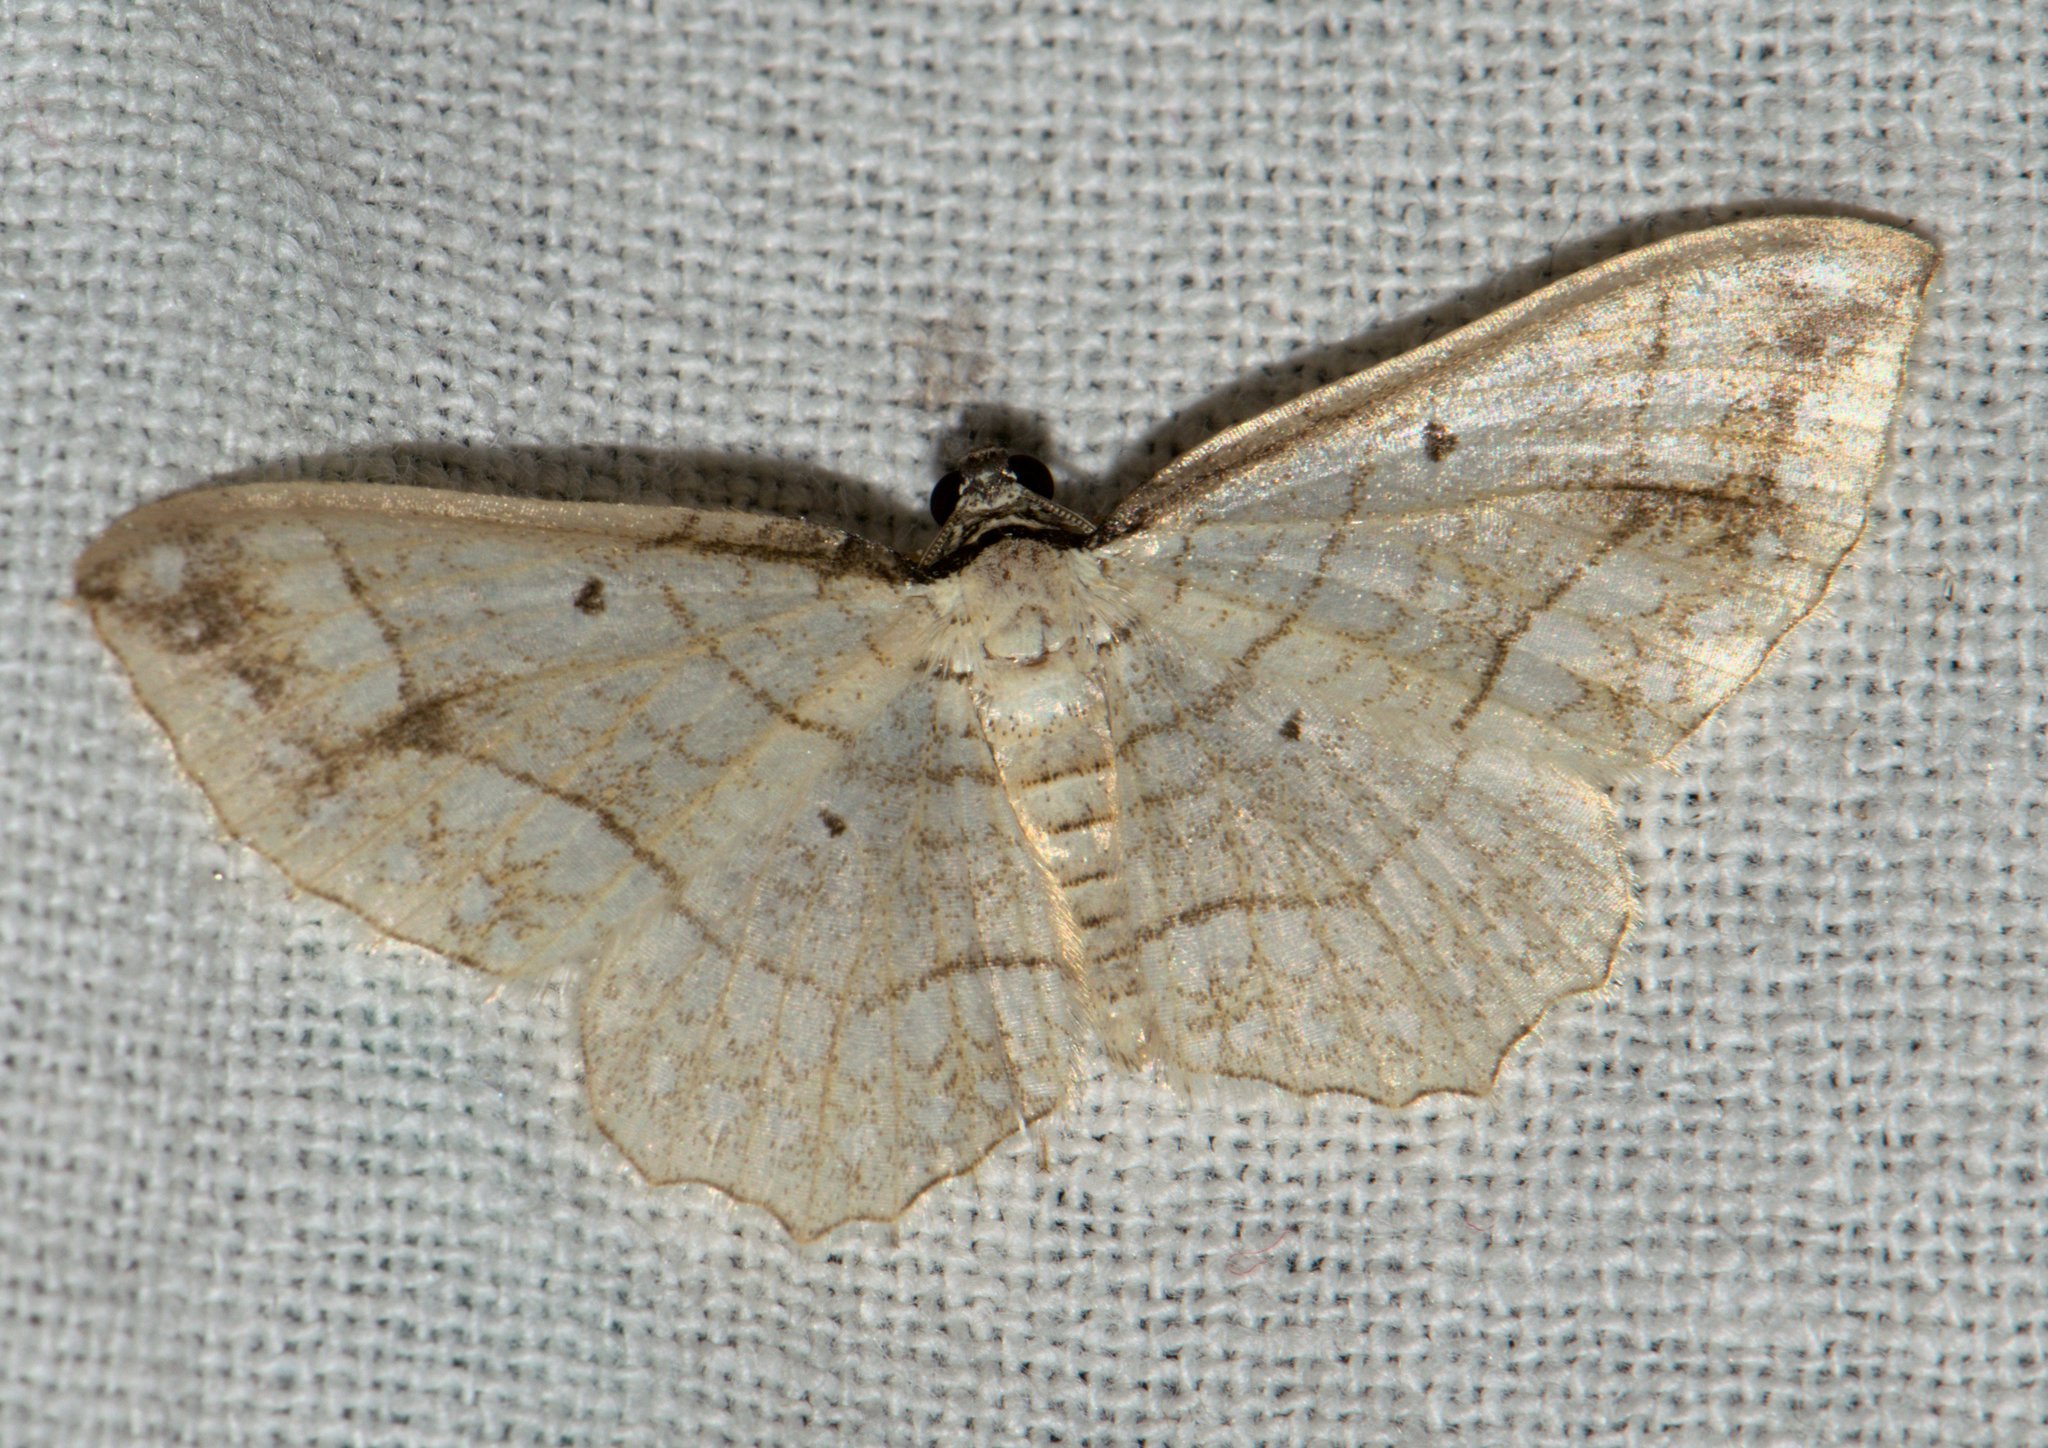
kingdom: Animalia
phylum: Arthropoda
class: Insecta
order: Lepidoptera
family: Geometridae
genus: Laciniodes
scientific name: Laciniodes plurilinearia
